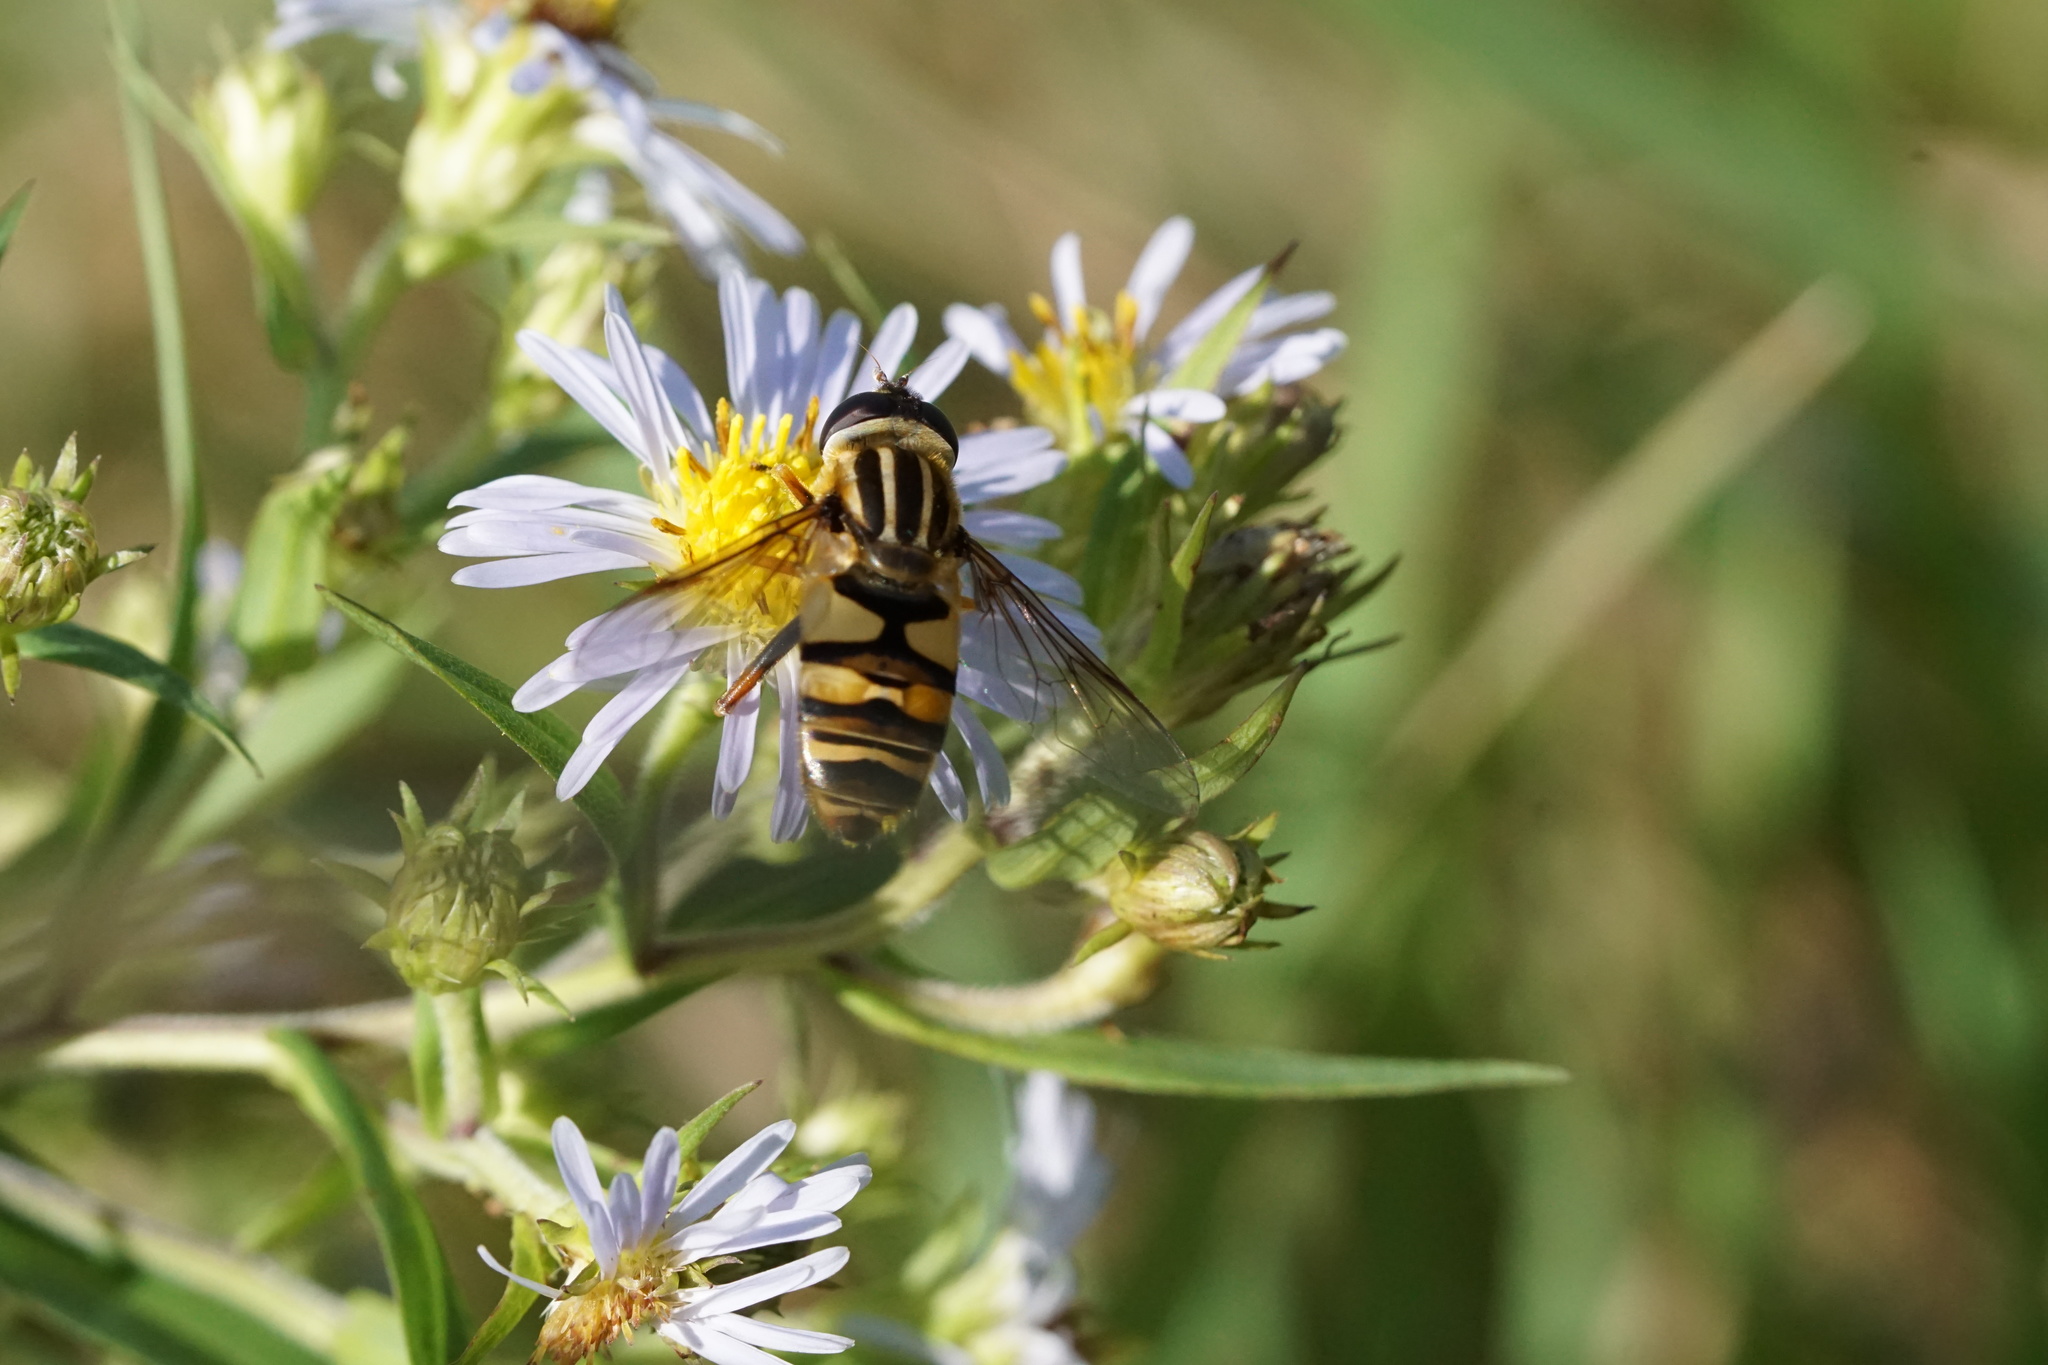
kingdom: Animalia
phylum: Arthropoda
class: Insecta
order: Diptera
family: Syrphidae
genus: Helophilus
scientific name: Helophilus fasciatus
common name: Narrow-headed marsh fly
